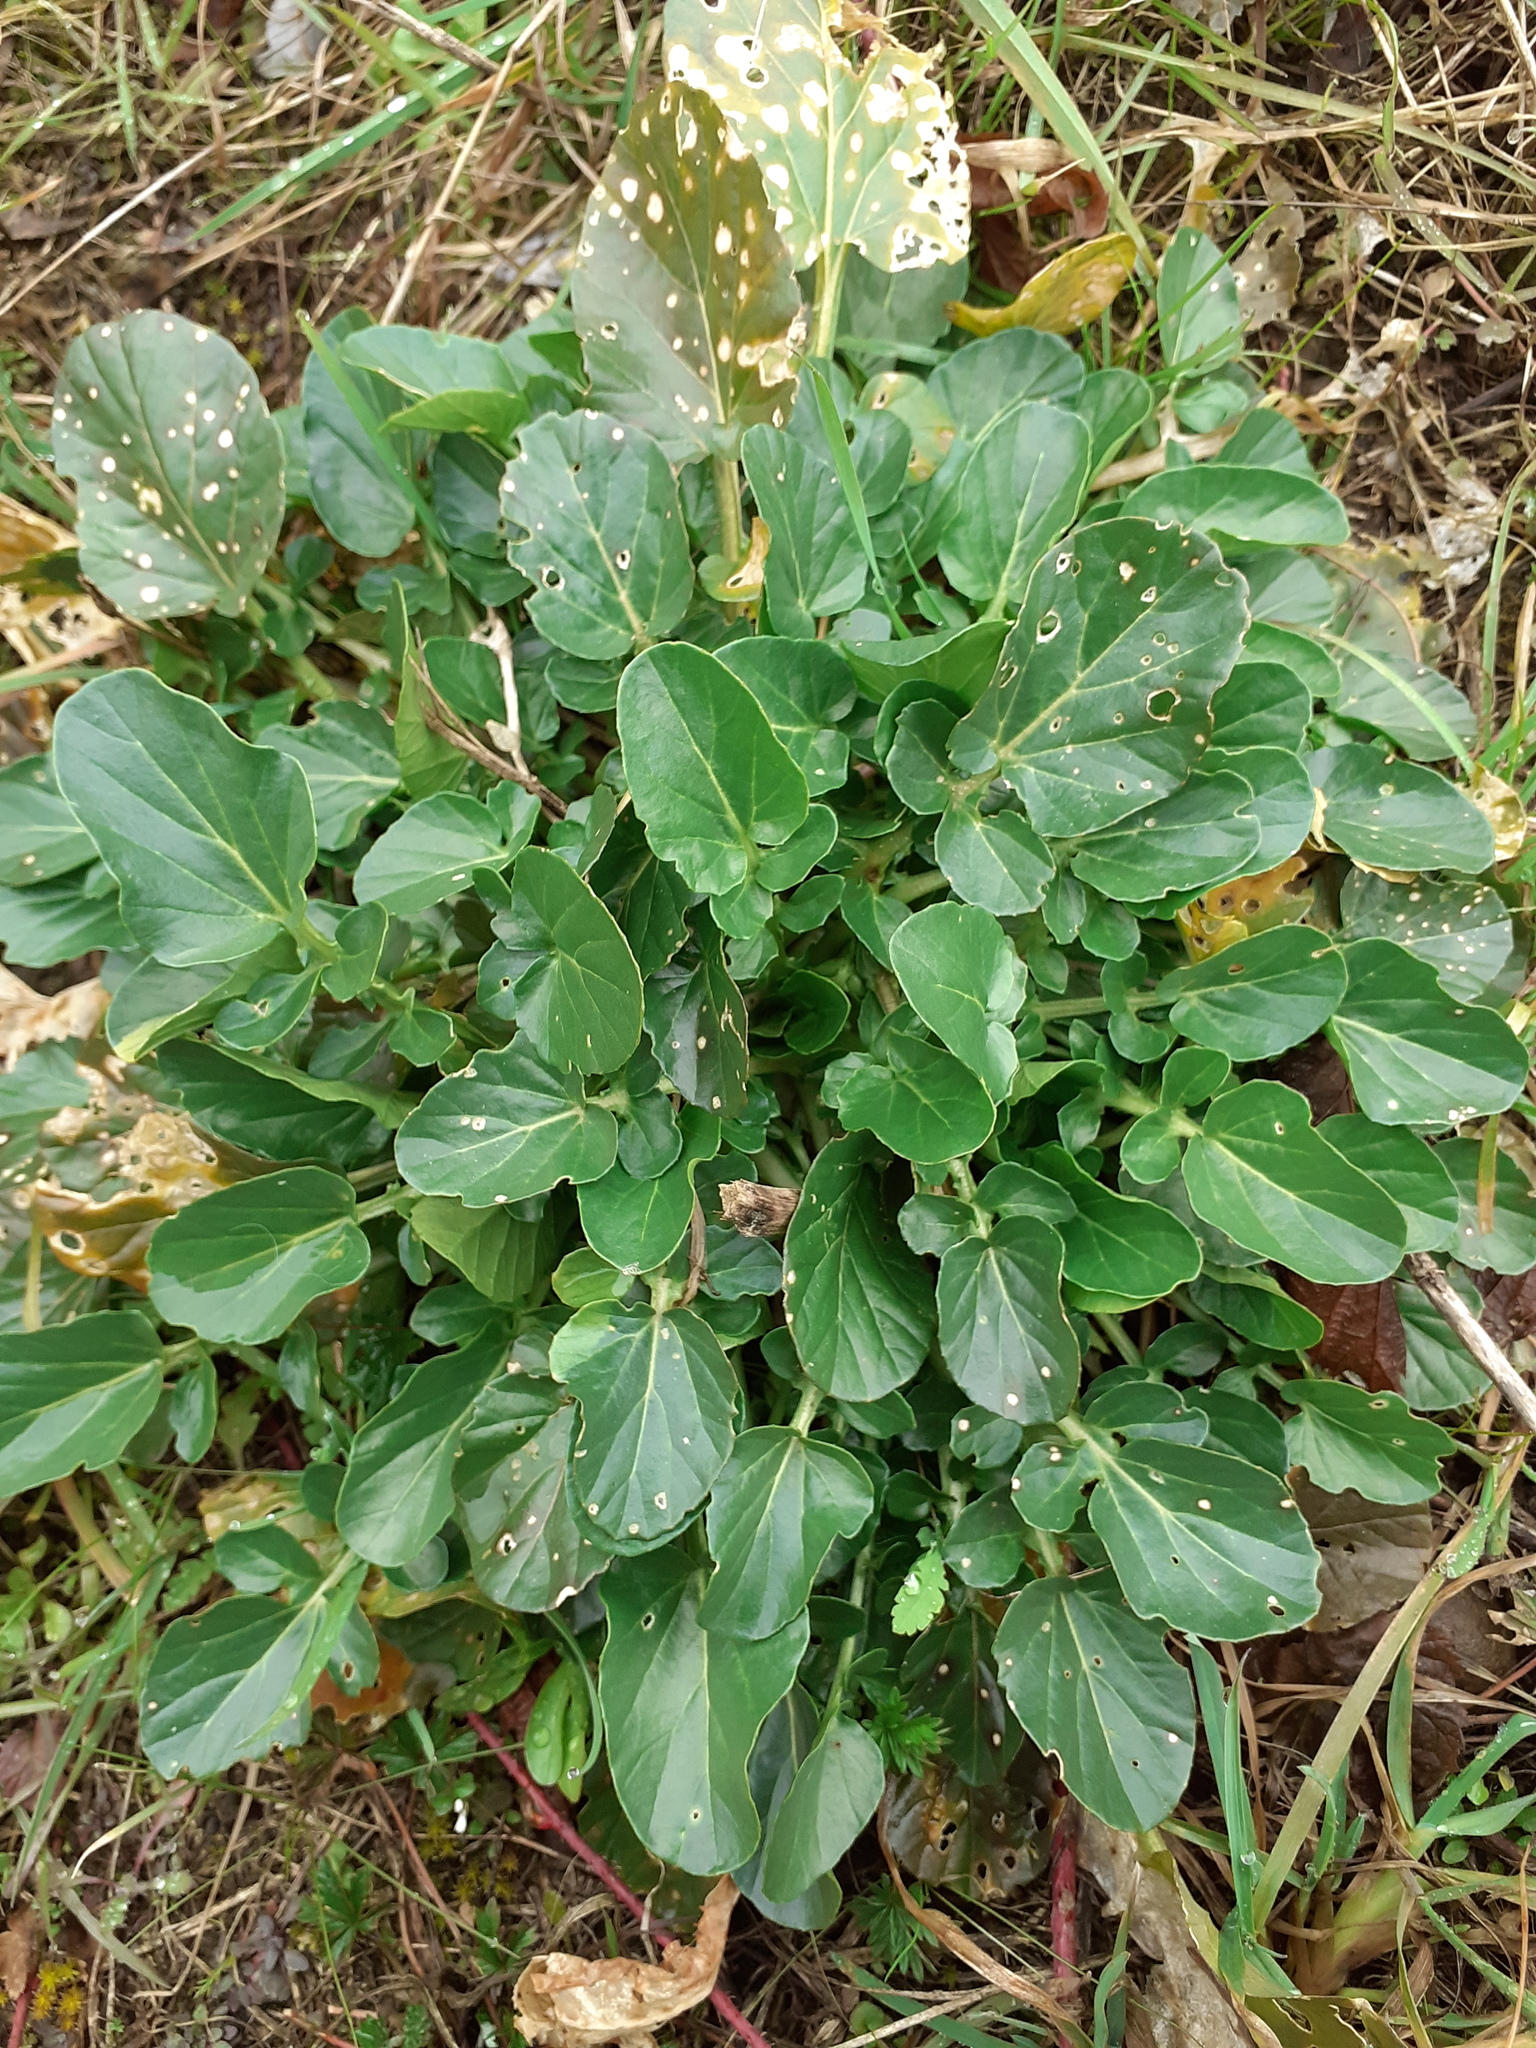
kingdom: Plantae
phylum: Tracheophyta
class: Magnoliopsida
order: Brassicales
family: Brassicaceae
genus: Barbarea
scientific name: Barbarea vulgaris
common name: Cressy-greens
